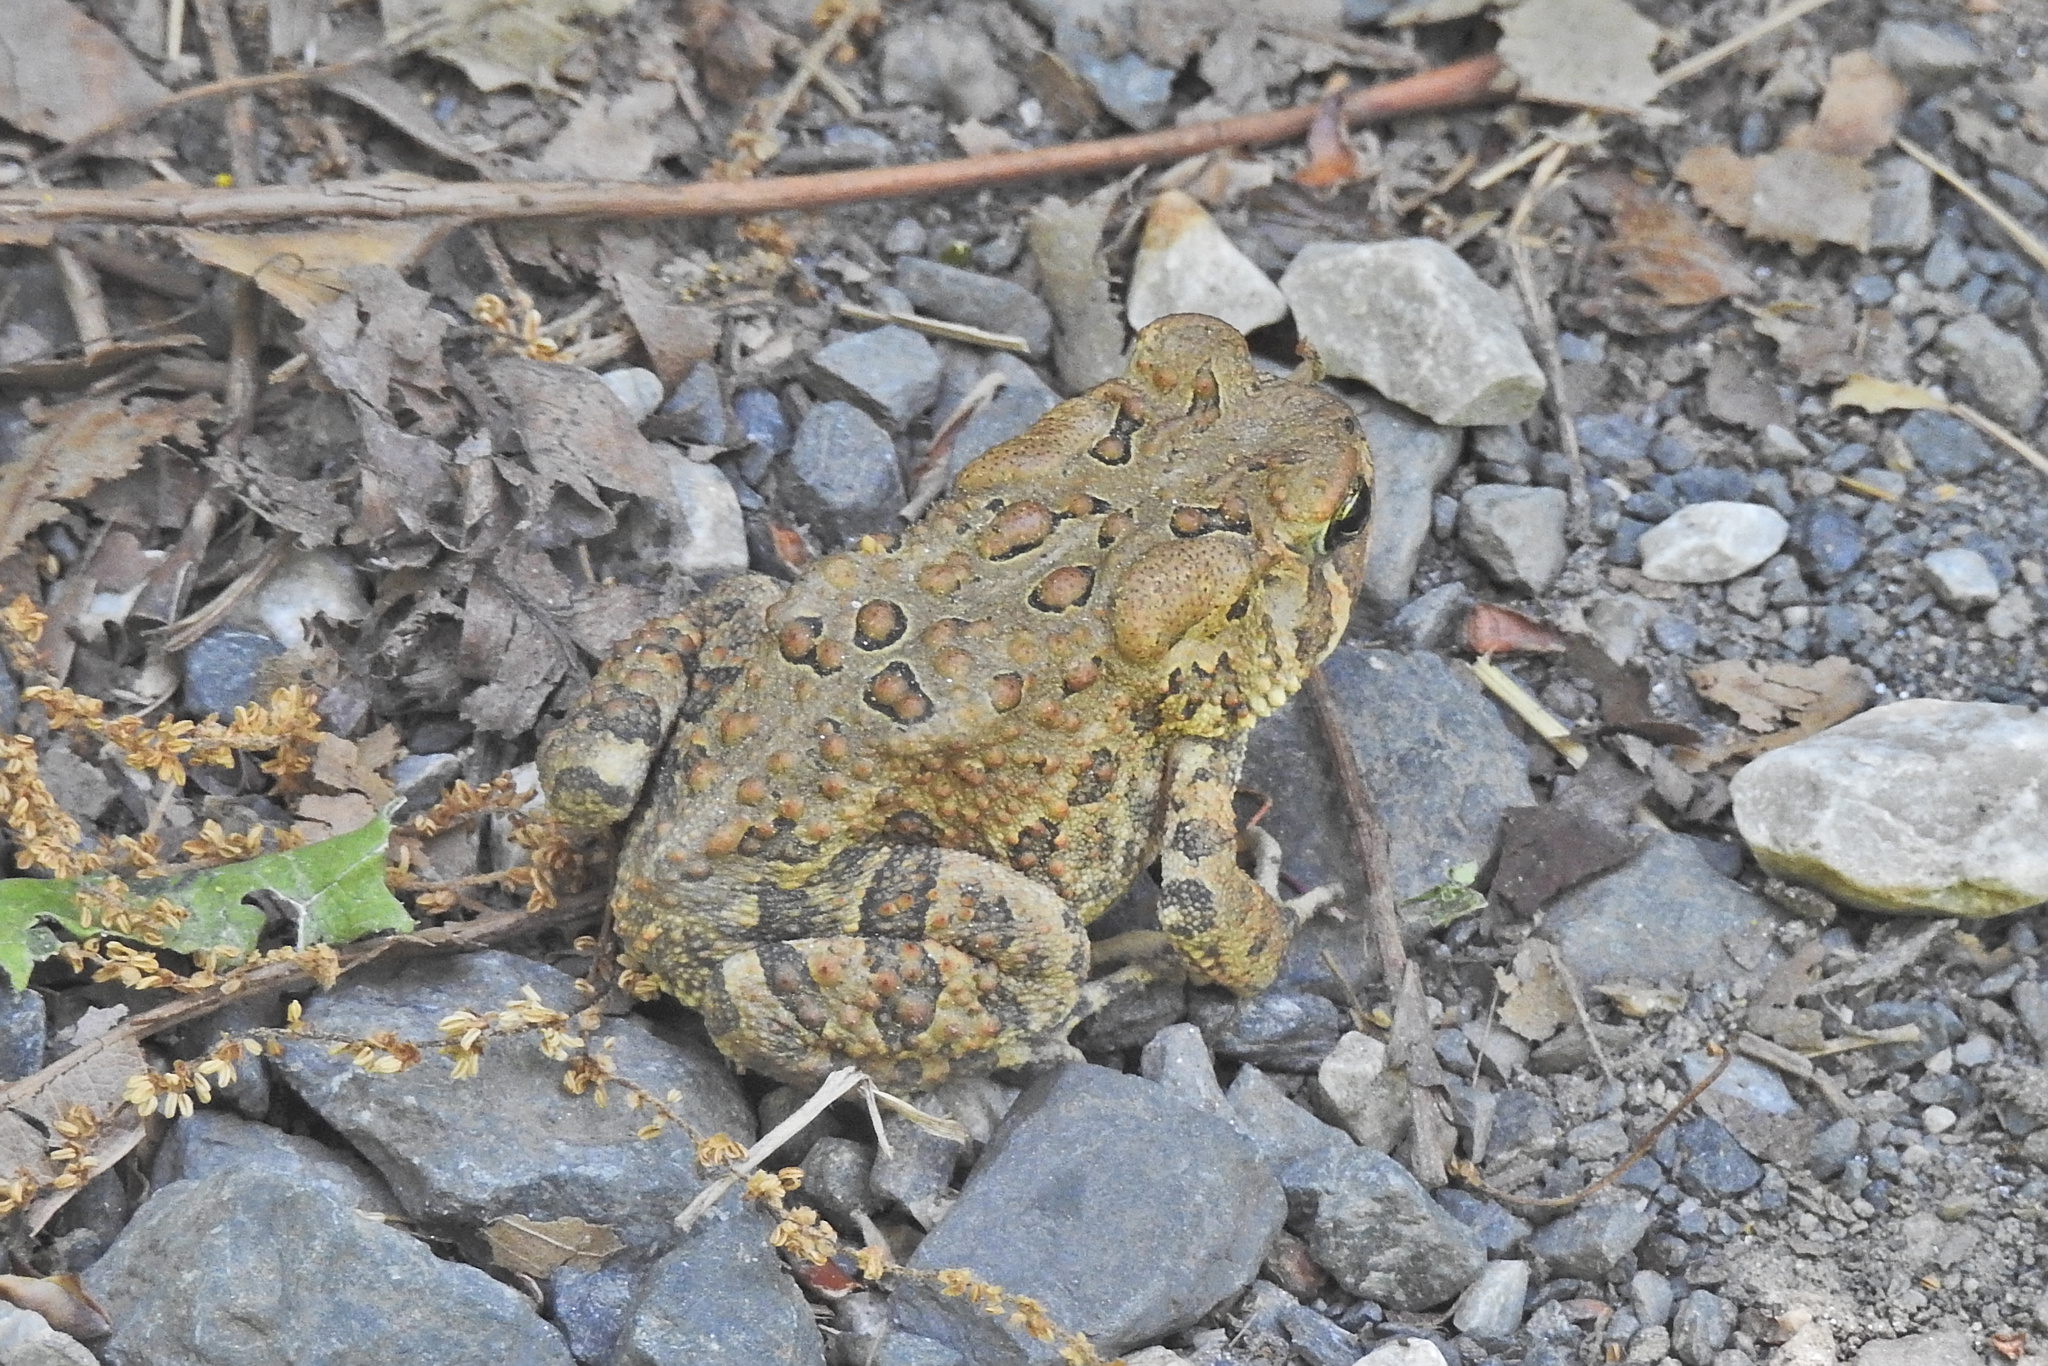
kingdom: Animalia
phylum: Chordata
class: Amphibia
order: Anura
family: Bufonidae
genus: Anaxyrus
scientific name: Anaxyrus americanus
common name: American toad
